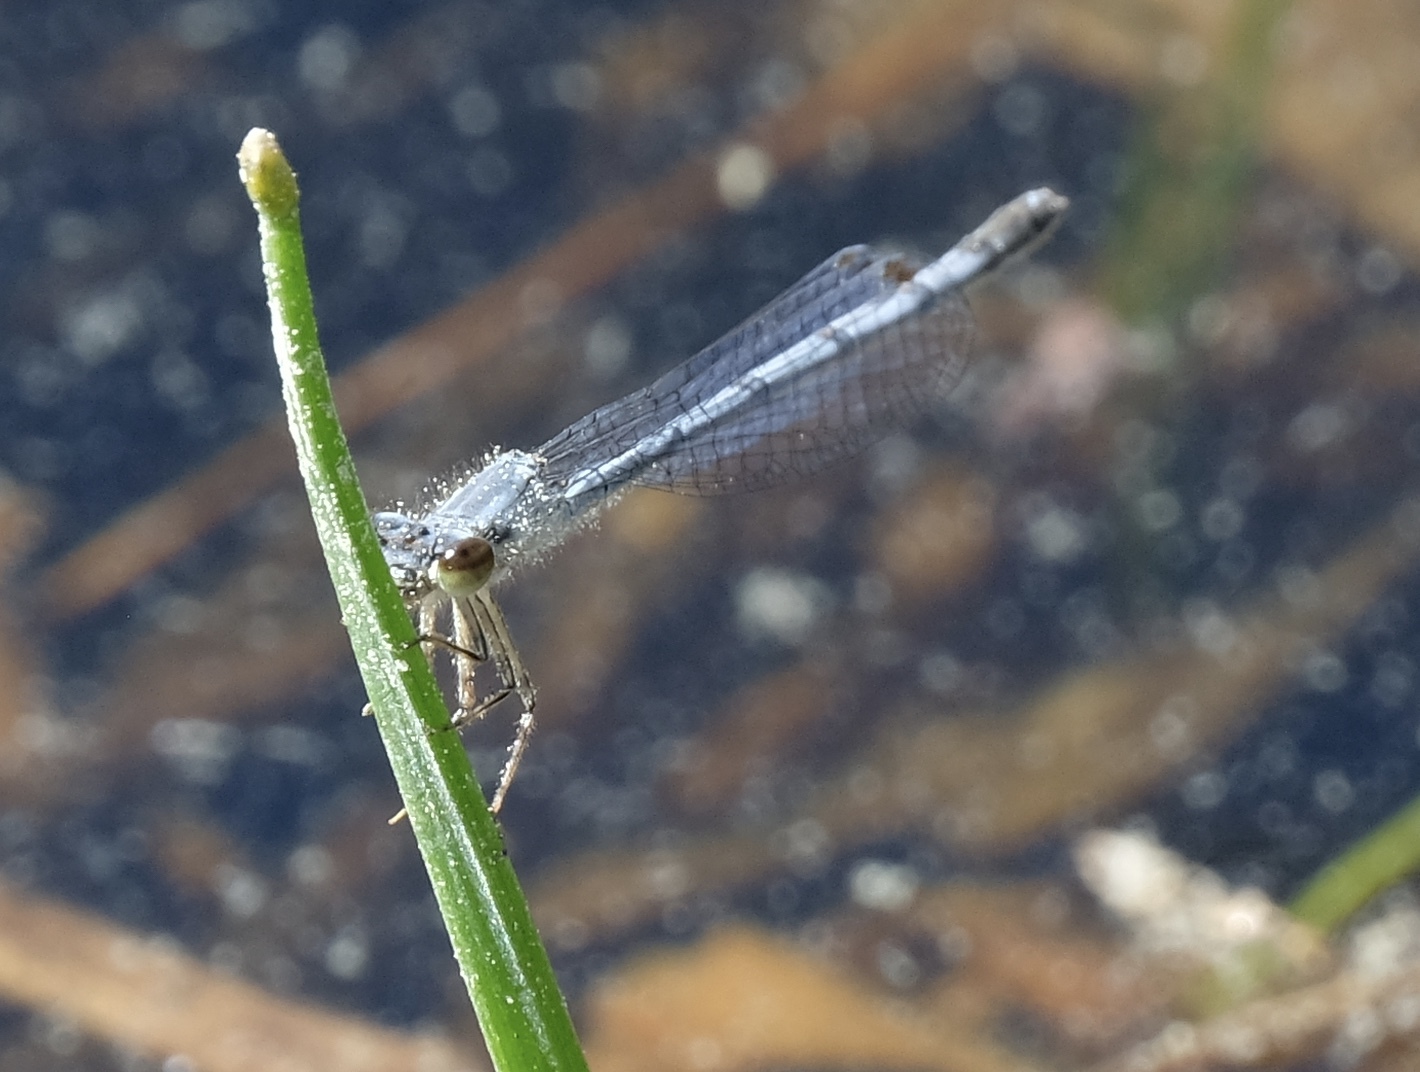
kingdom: Animalia
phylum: Arthropoda
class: Insecta
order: Odonata
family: Coenagrionidae
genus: Ischnura
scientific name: Ischnura posita
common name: Fragile forktail
